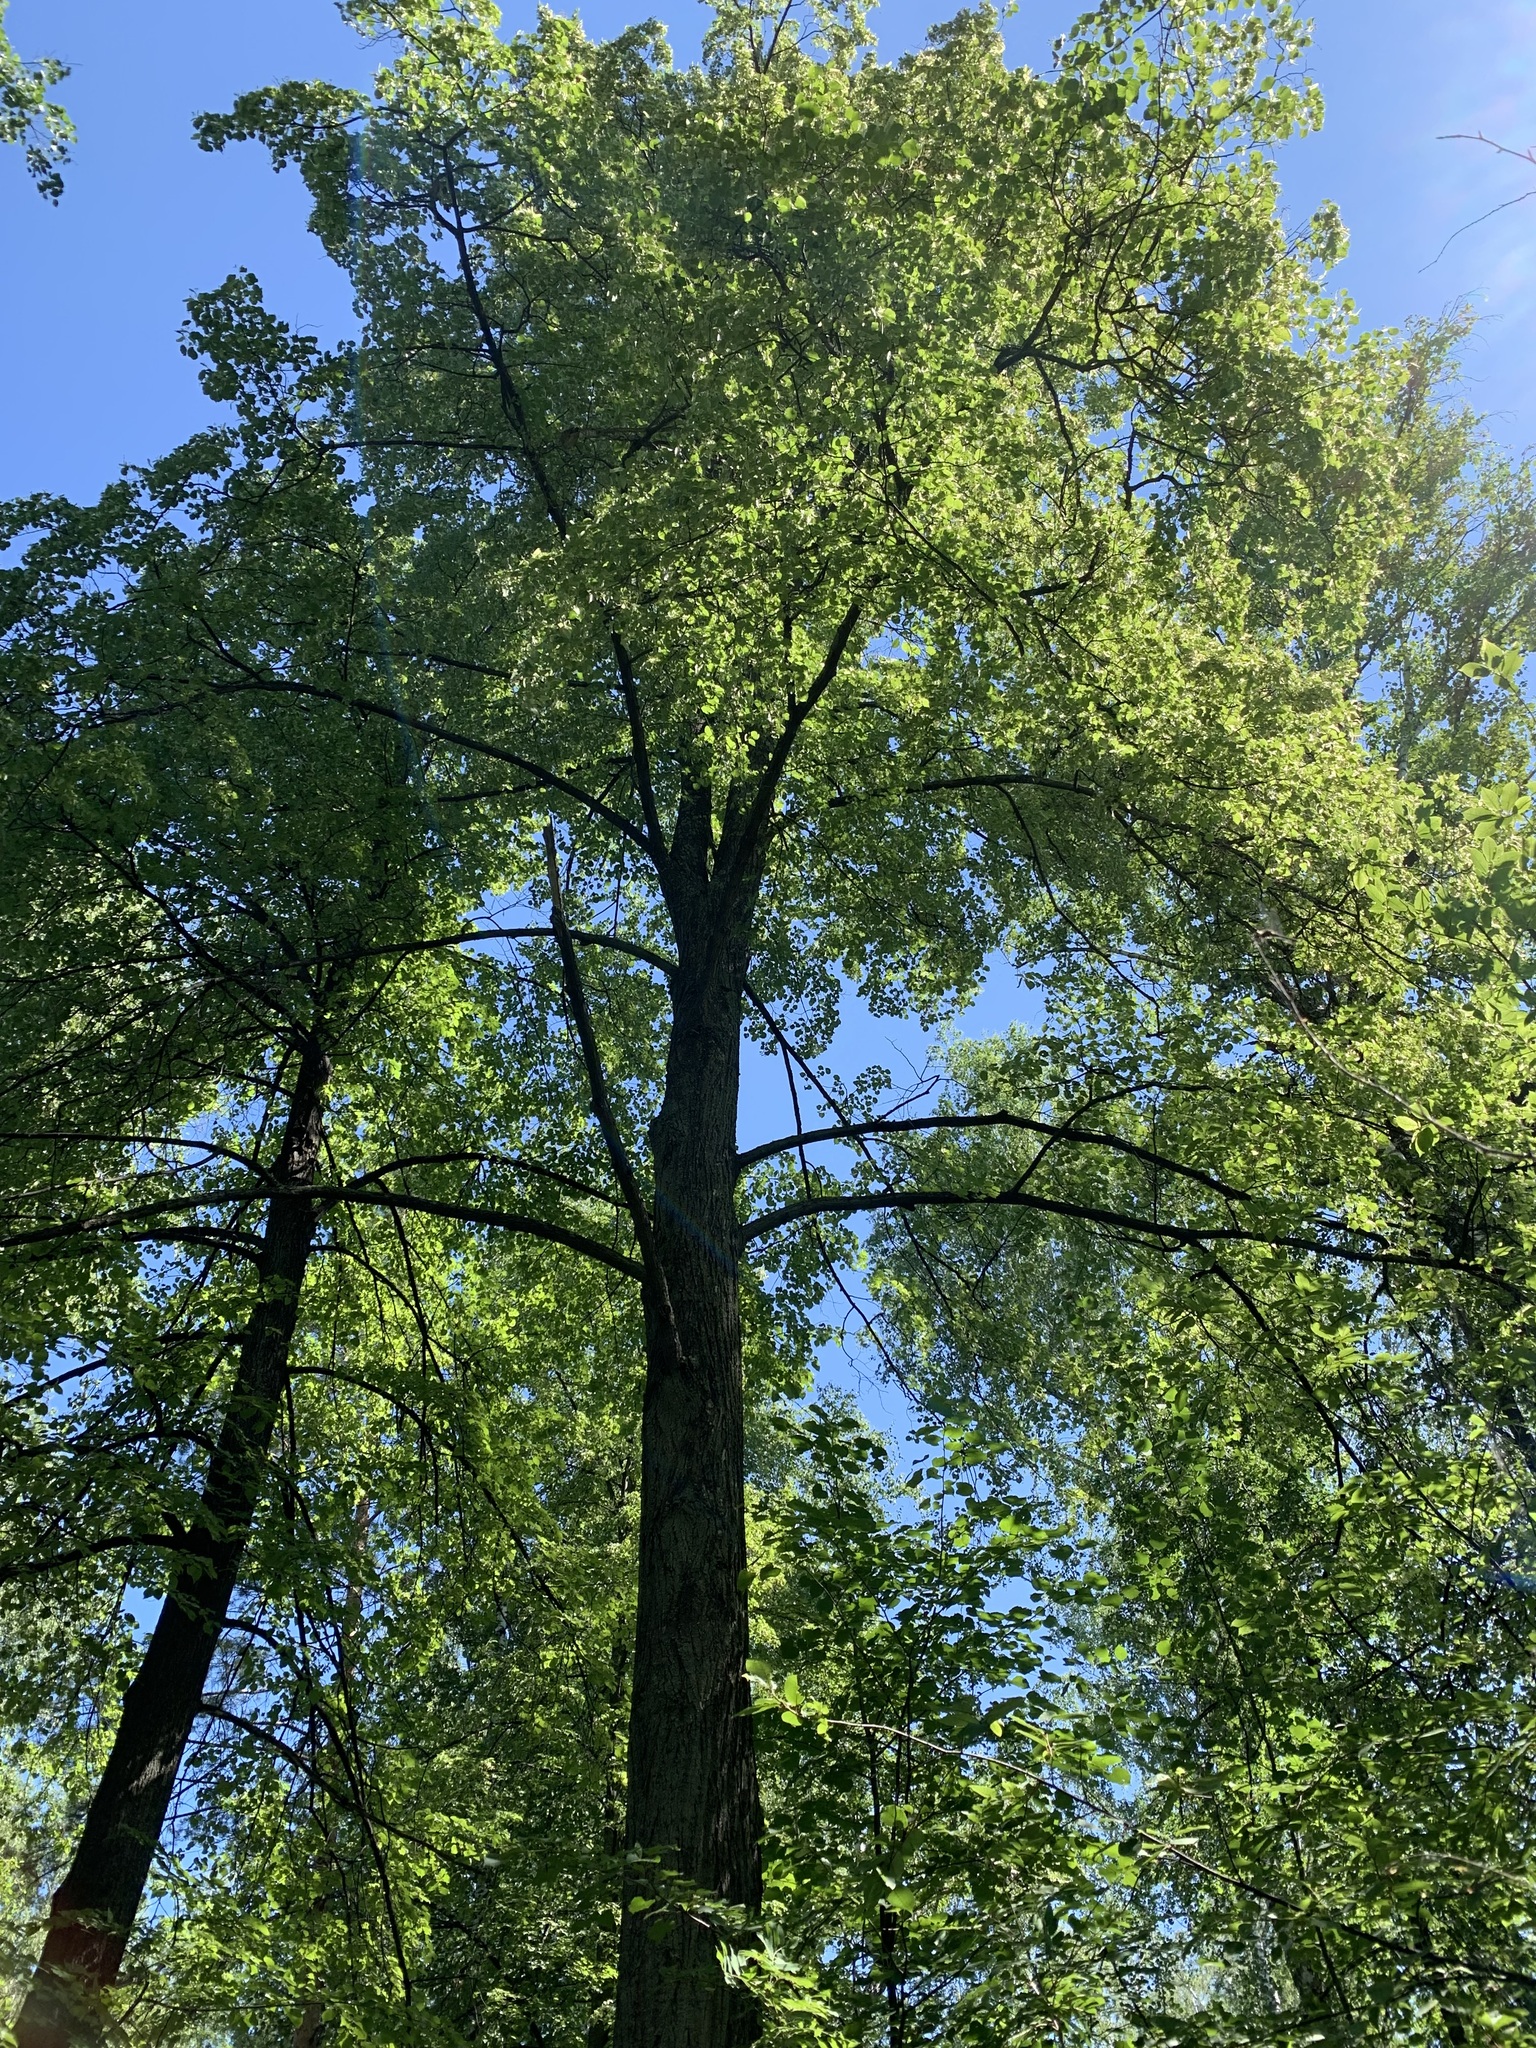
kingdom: Plantae
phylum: Tracheophyta
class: Magnoliopsida
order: Malvales
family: Malvaceae
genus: Tilia
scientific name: Tilia cordata
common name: Small-leaved lime
